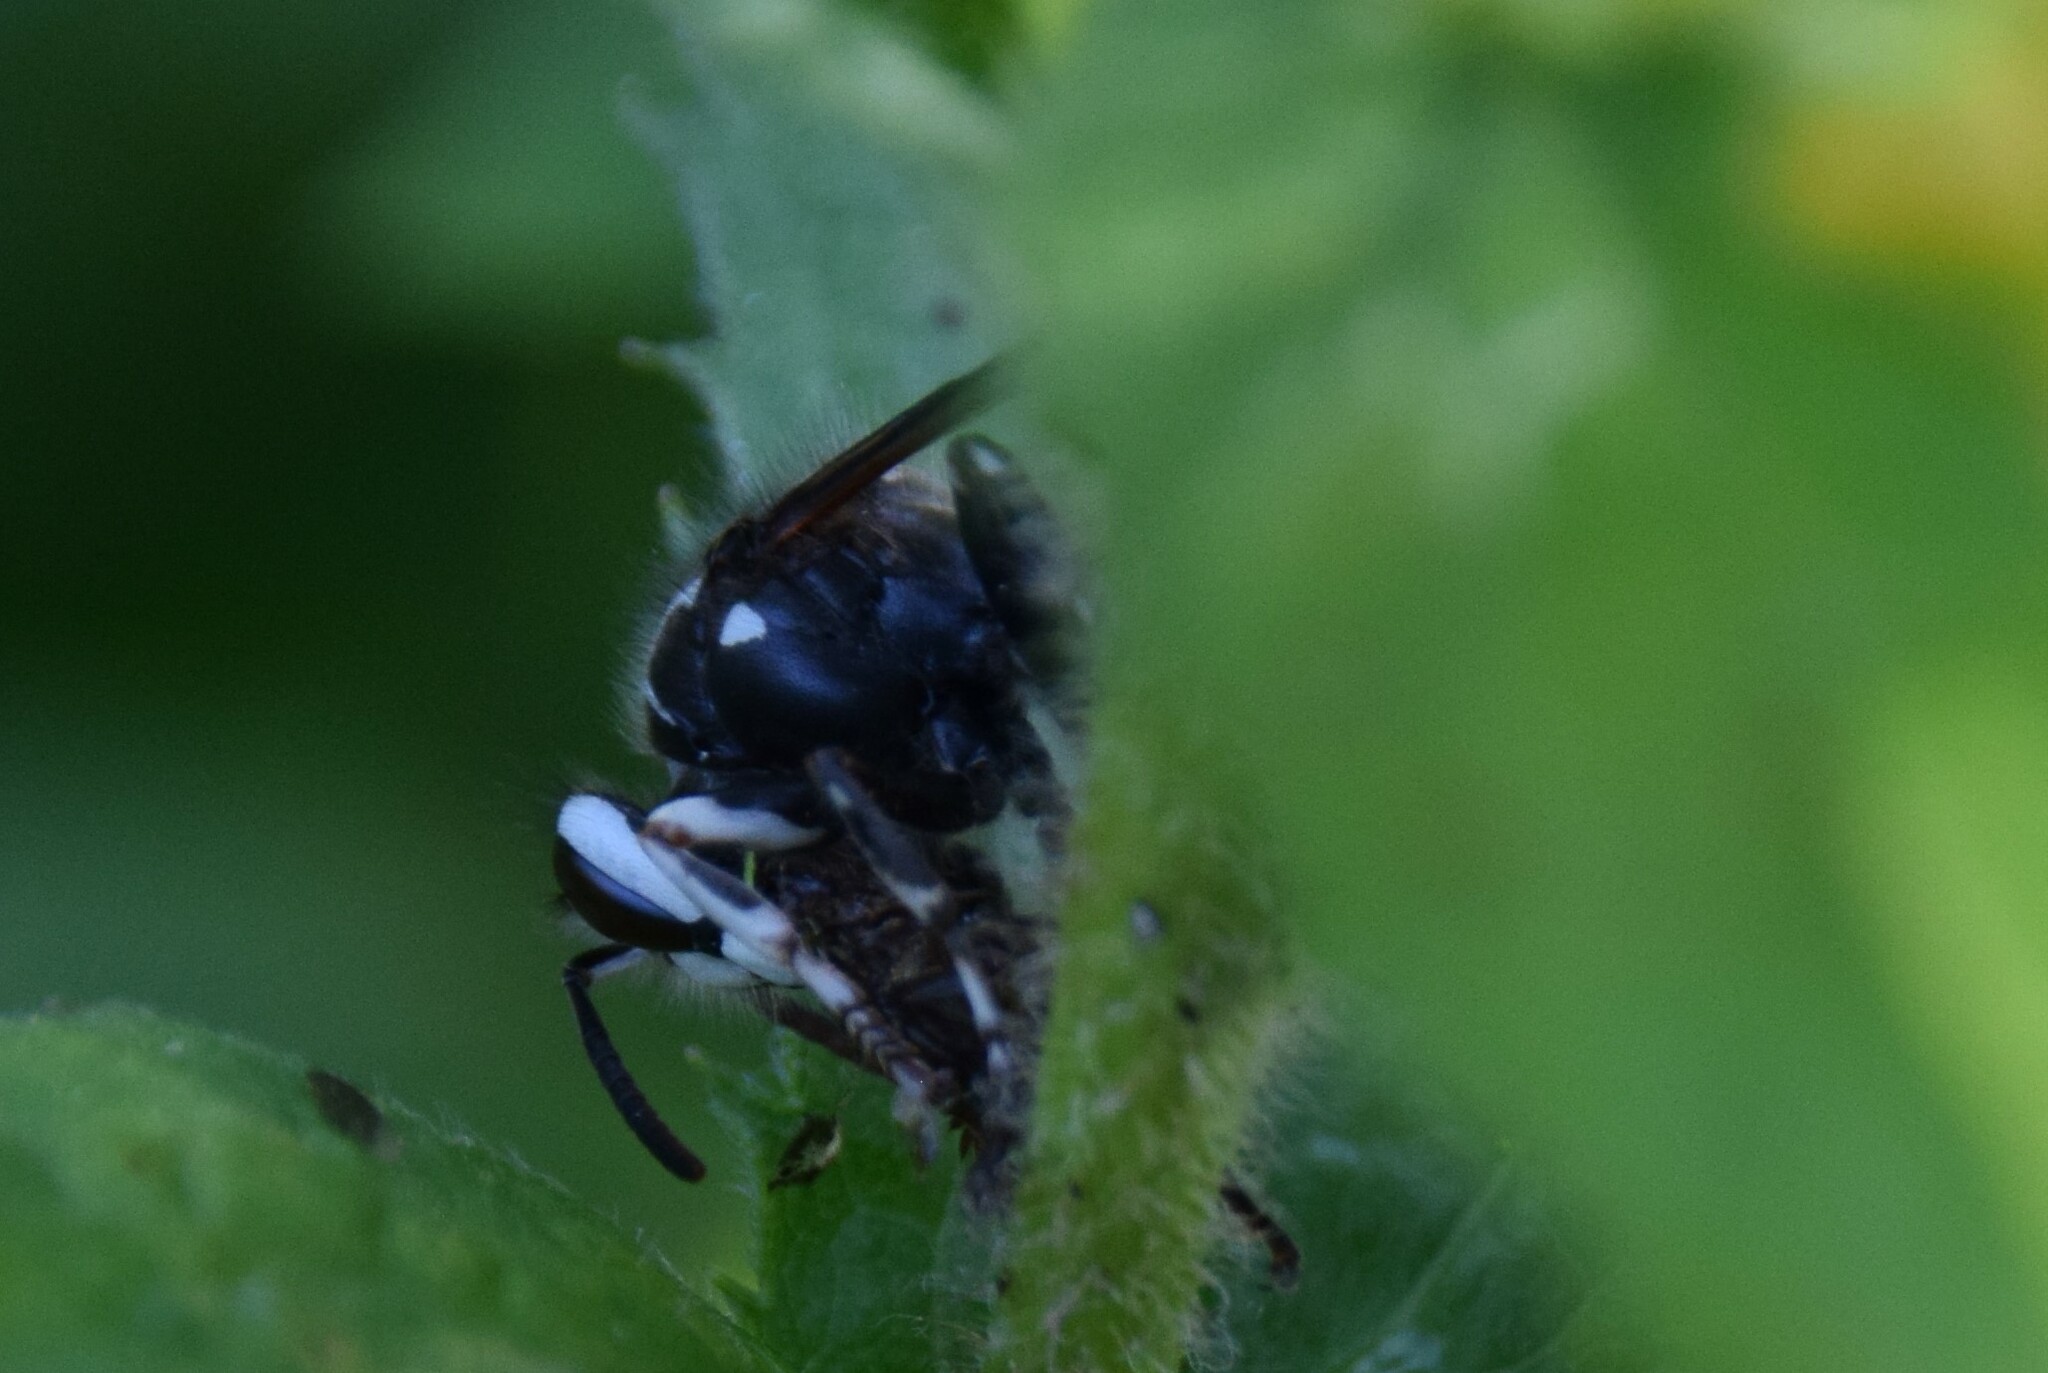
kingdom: Animalia
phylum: Arthropoda
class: Insecta
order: Hymenoptera
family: Vespidae
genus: Dolichovespula
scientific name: Dolichovespula maculata
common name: Bald-faced hornet
